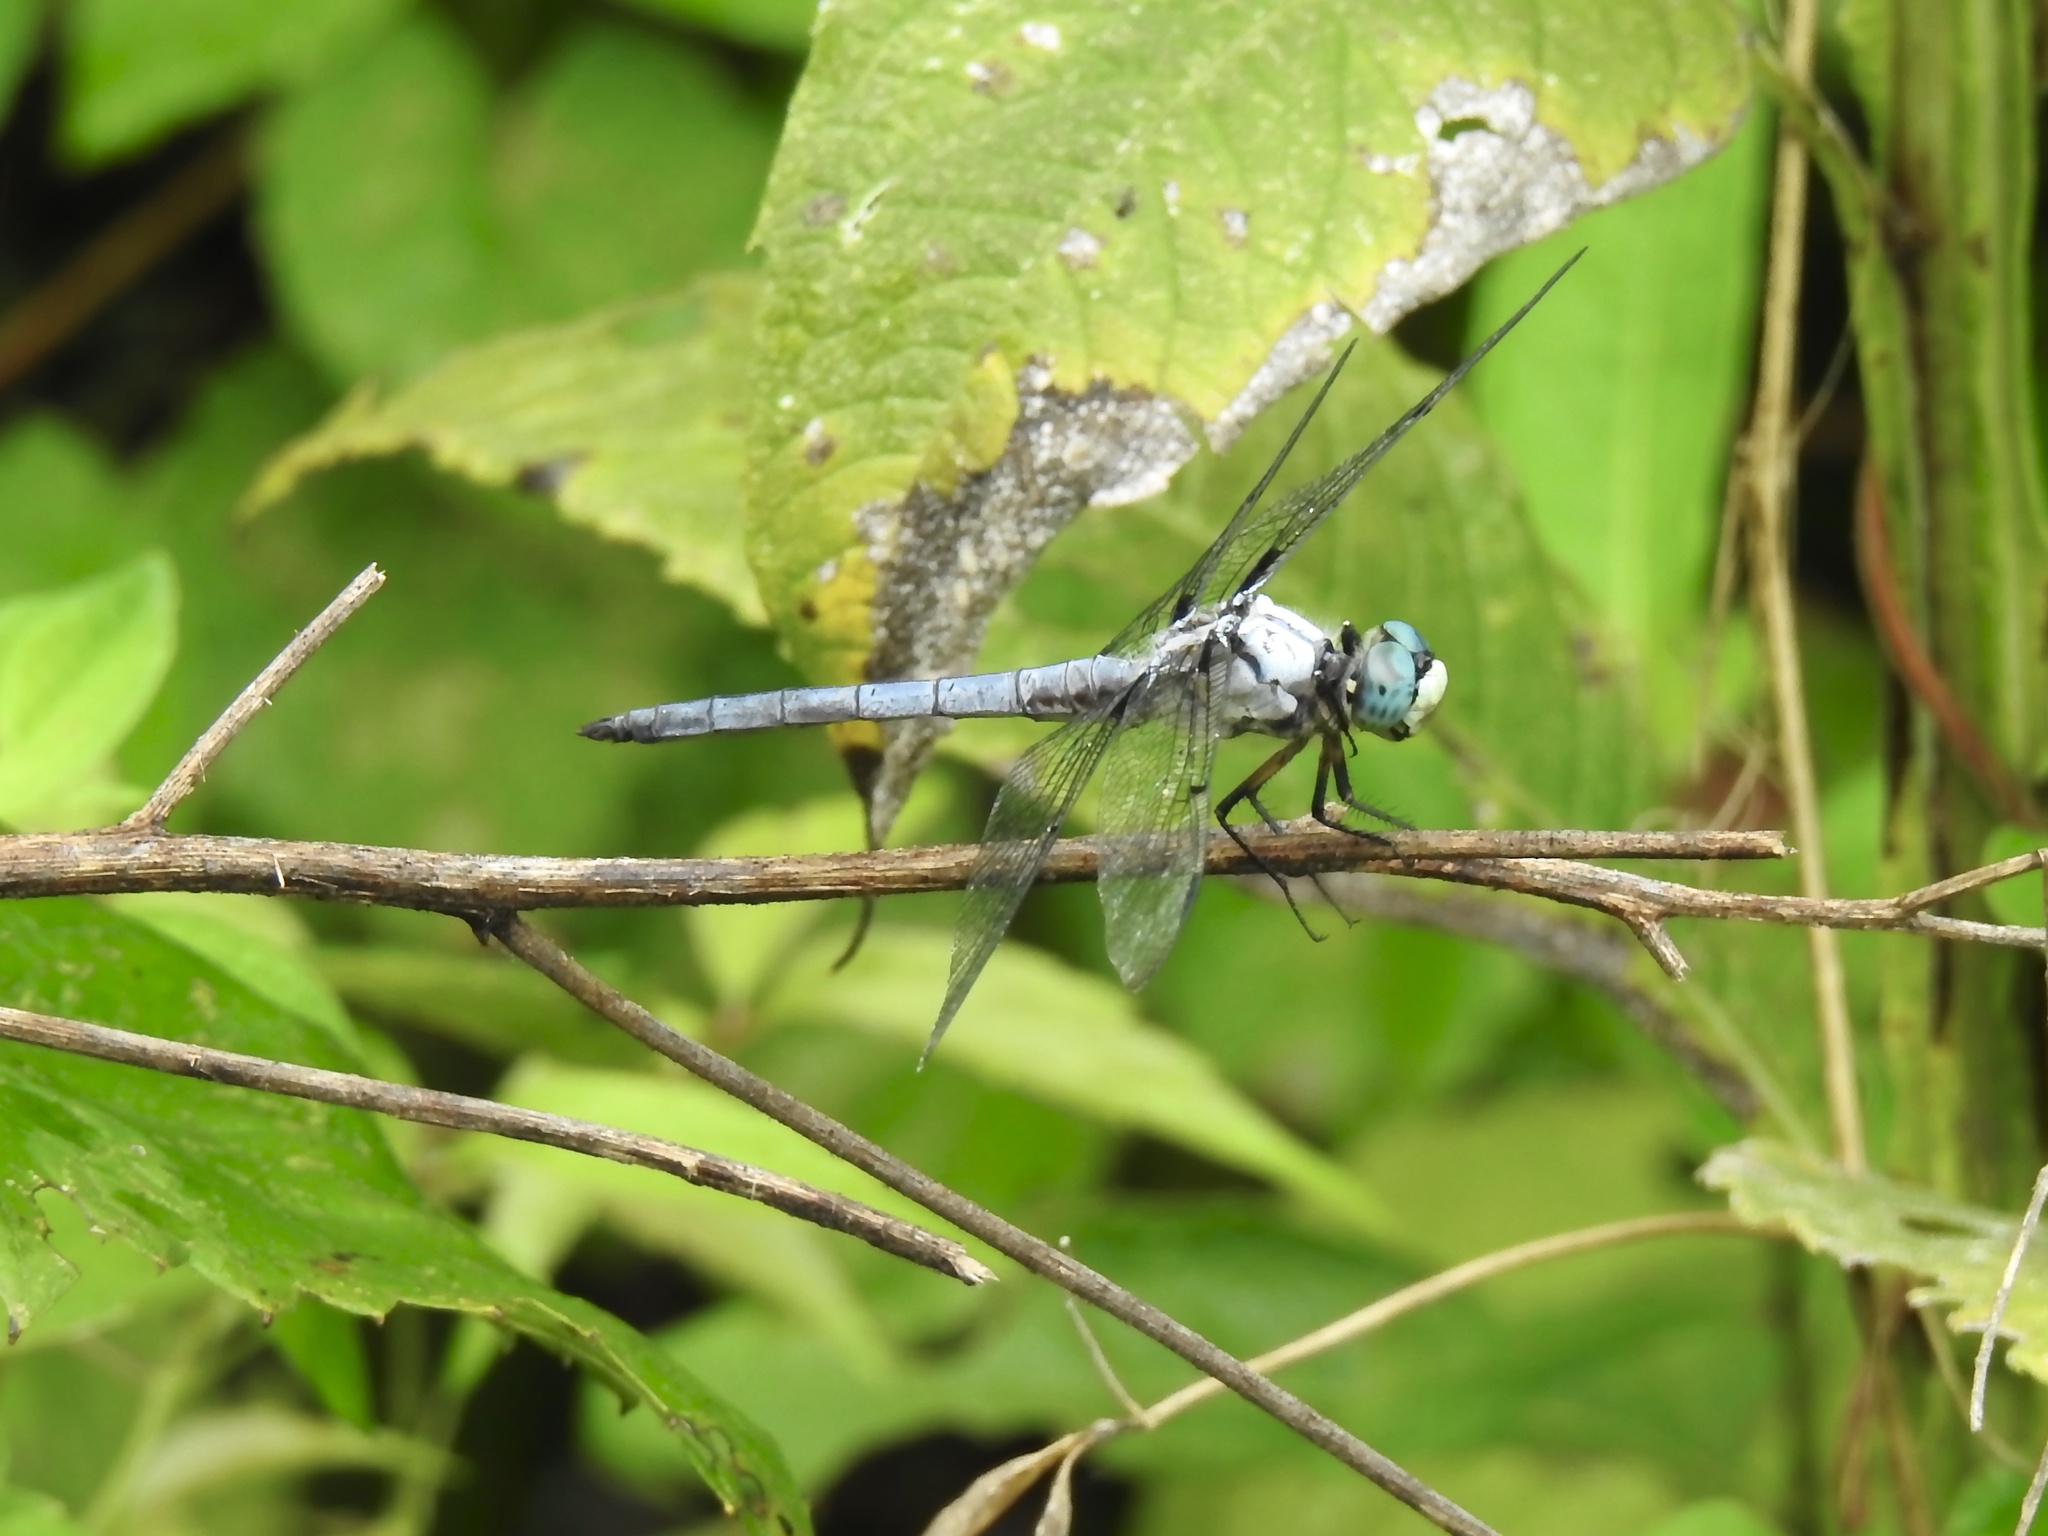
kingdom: Animalia
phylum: Arthropoda
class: Insecta
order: Odonata
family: Libellulidae
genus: Libellula
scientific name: Libellula vibrans
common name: Great blue skimmer
